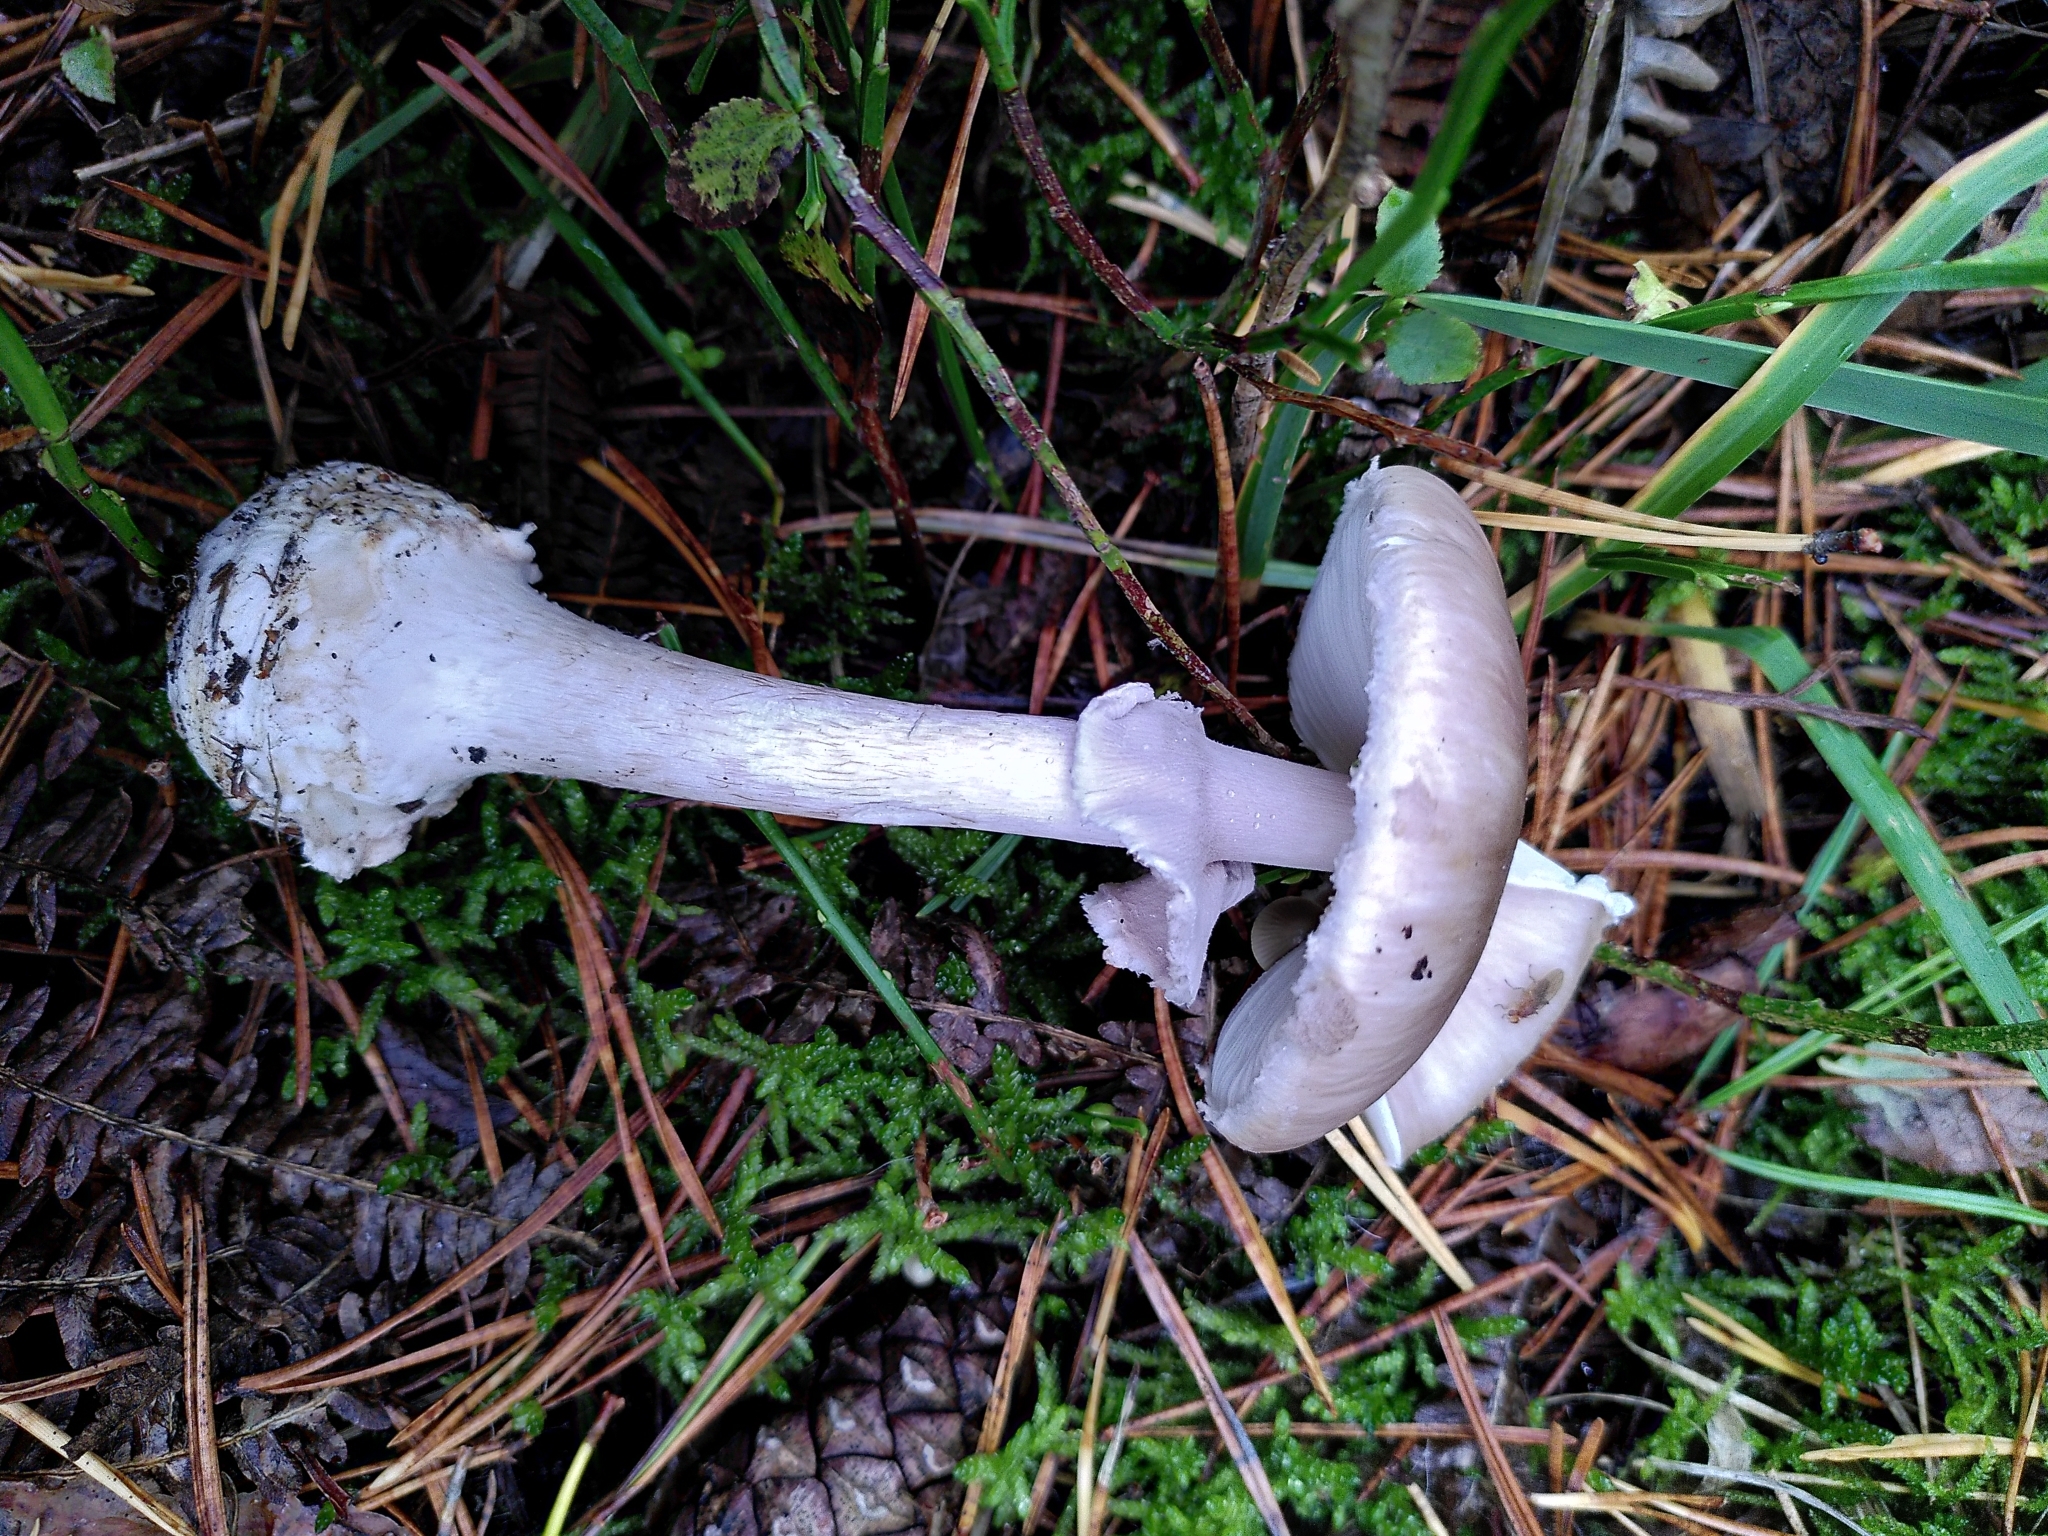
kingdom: Fungi
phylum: Basidiomycota
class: Agaricomycetes
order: Agaricales
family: Amanitaceae
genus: Amanita
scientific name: Amanita porphyria
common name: Grey veiled amanita
